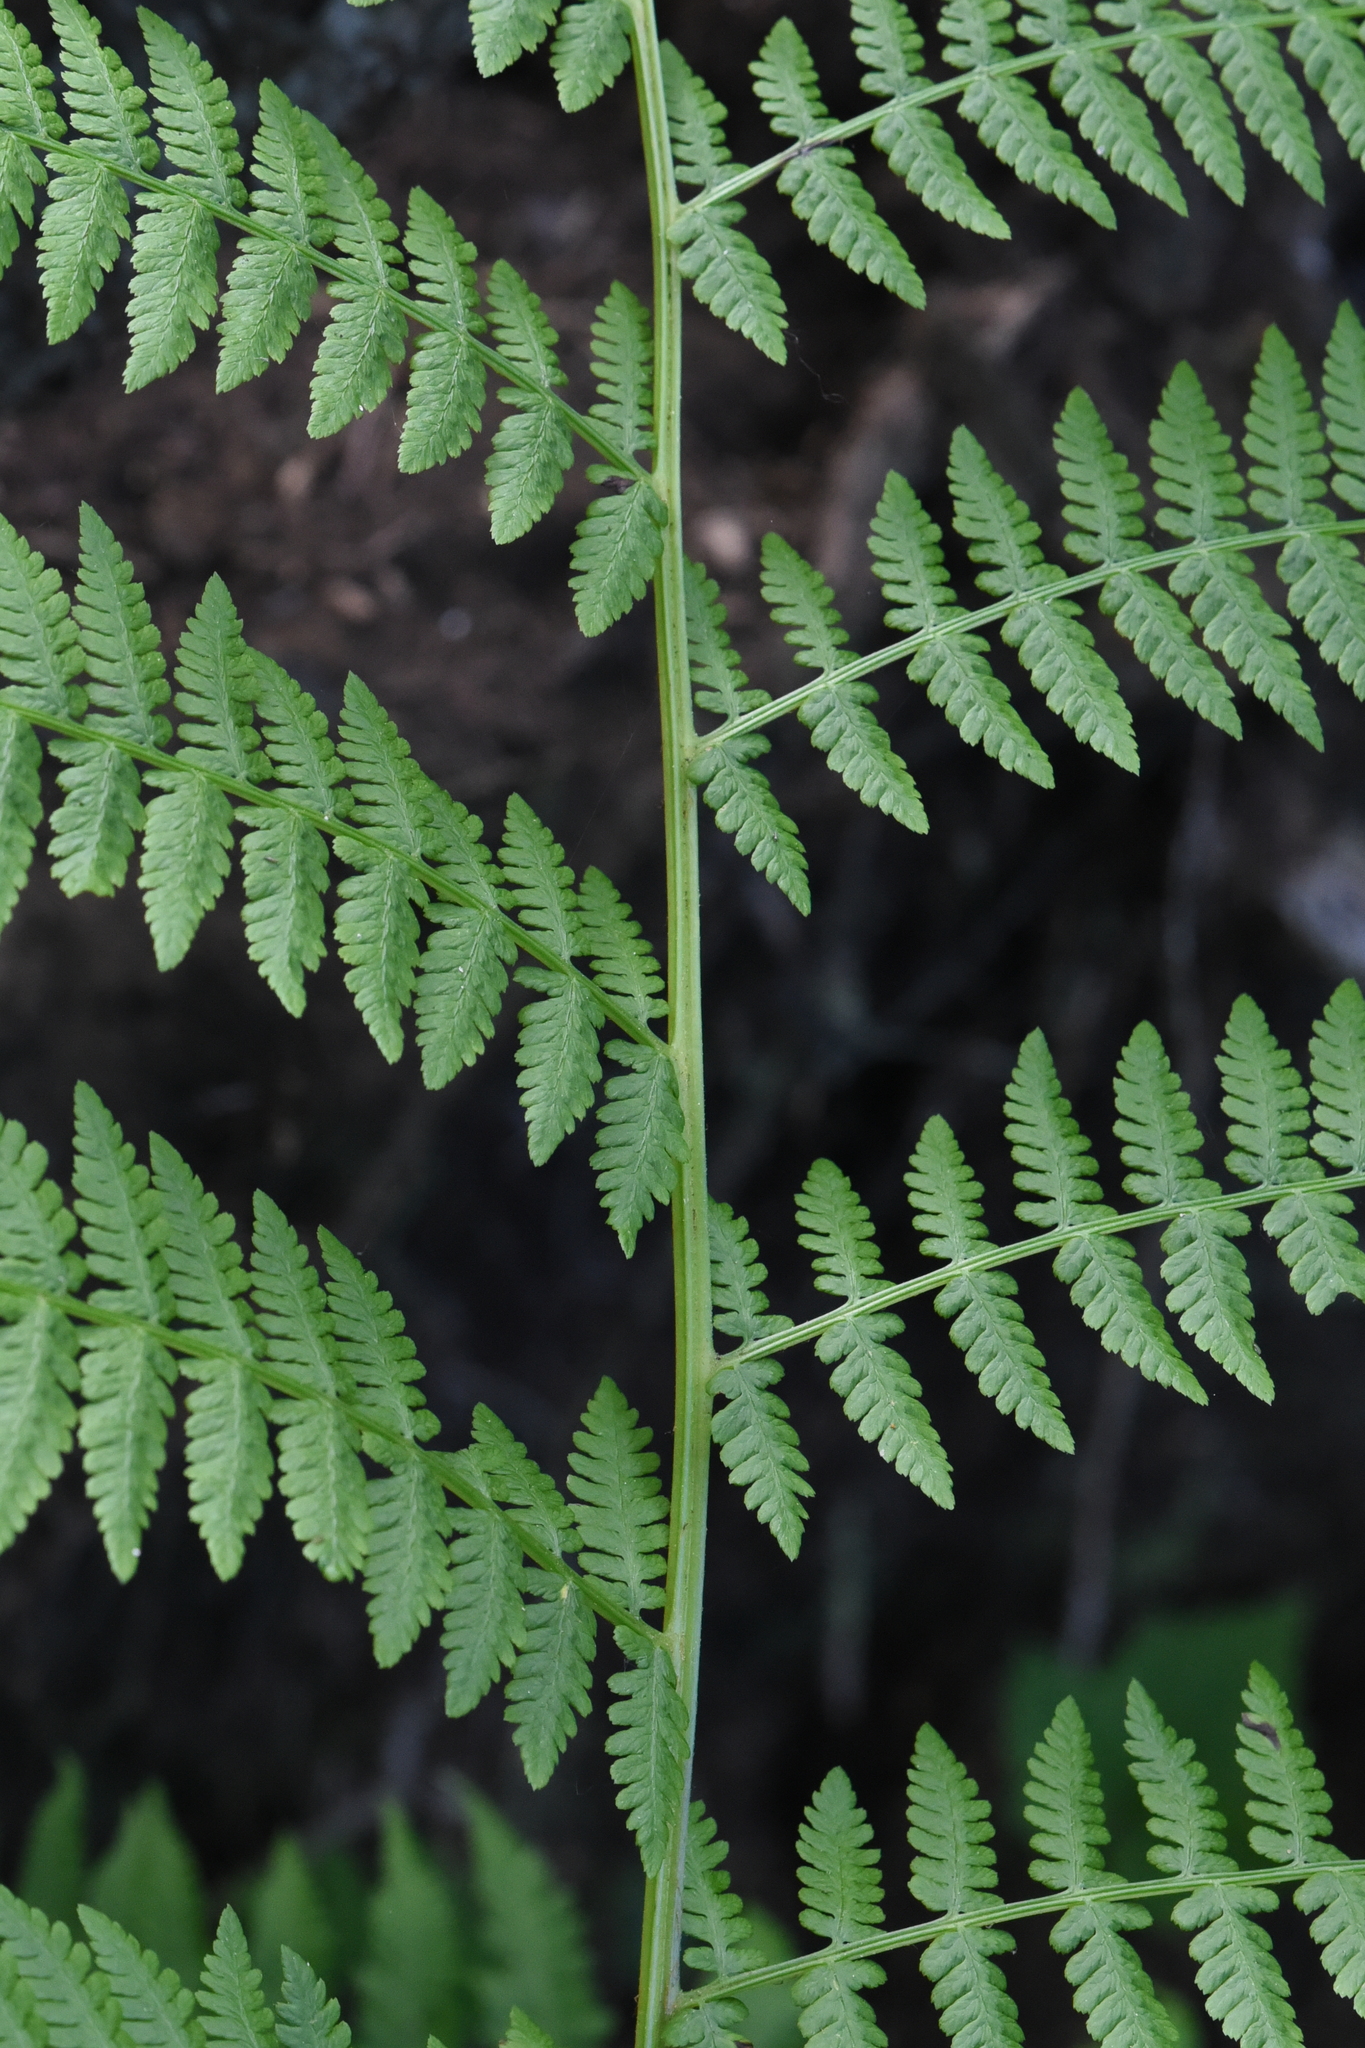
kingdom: Plantae
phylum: Tracheophyta
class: Polypodiopsida
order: Polypodiales
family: Athyriaceae
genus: Athyrium
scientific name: Athyrium filix-femina
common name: Lady fern
